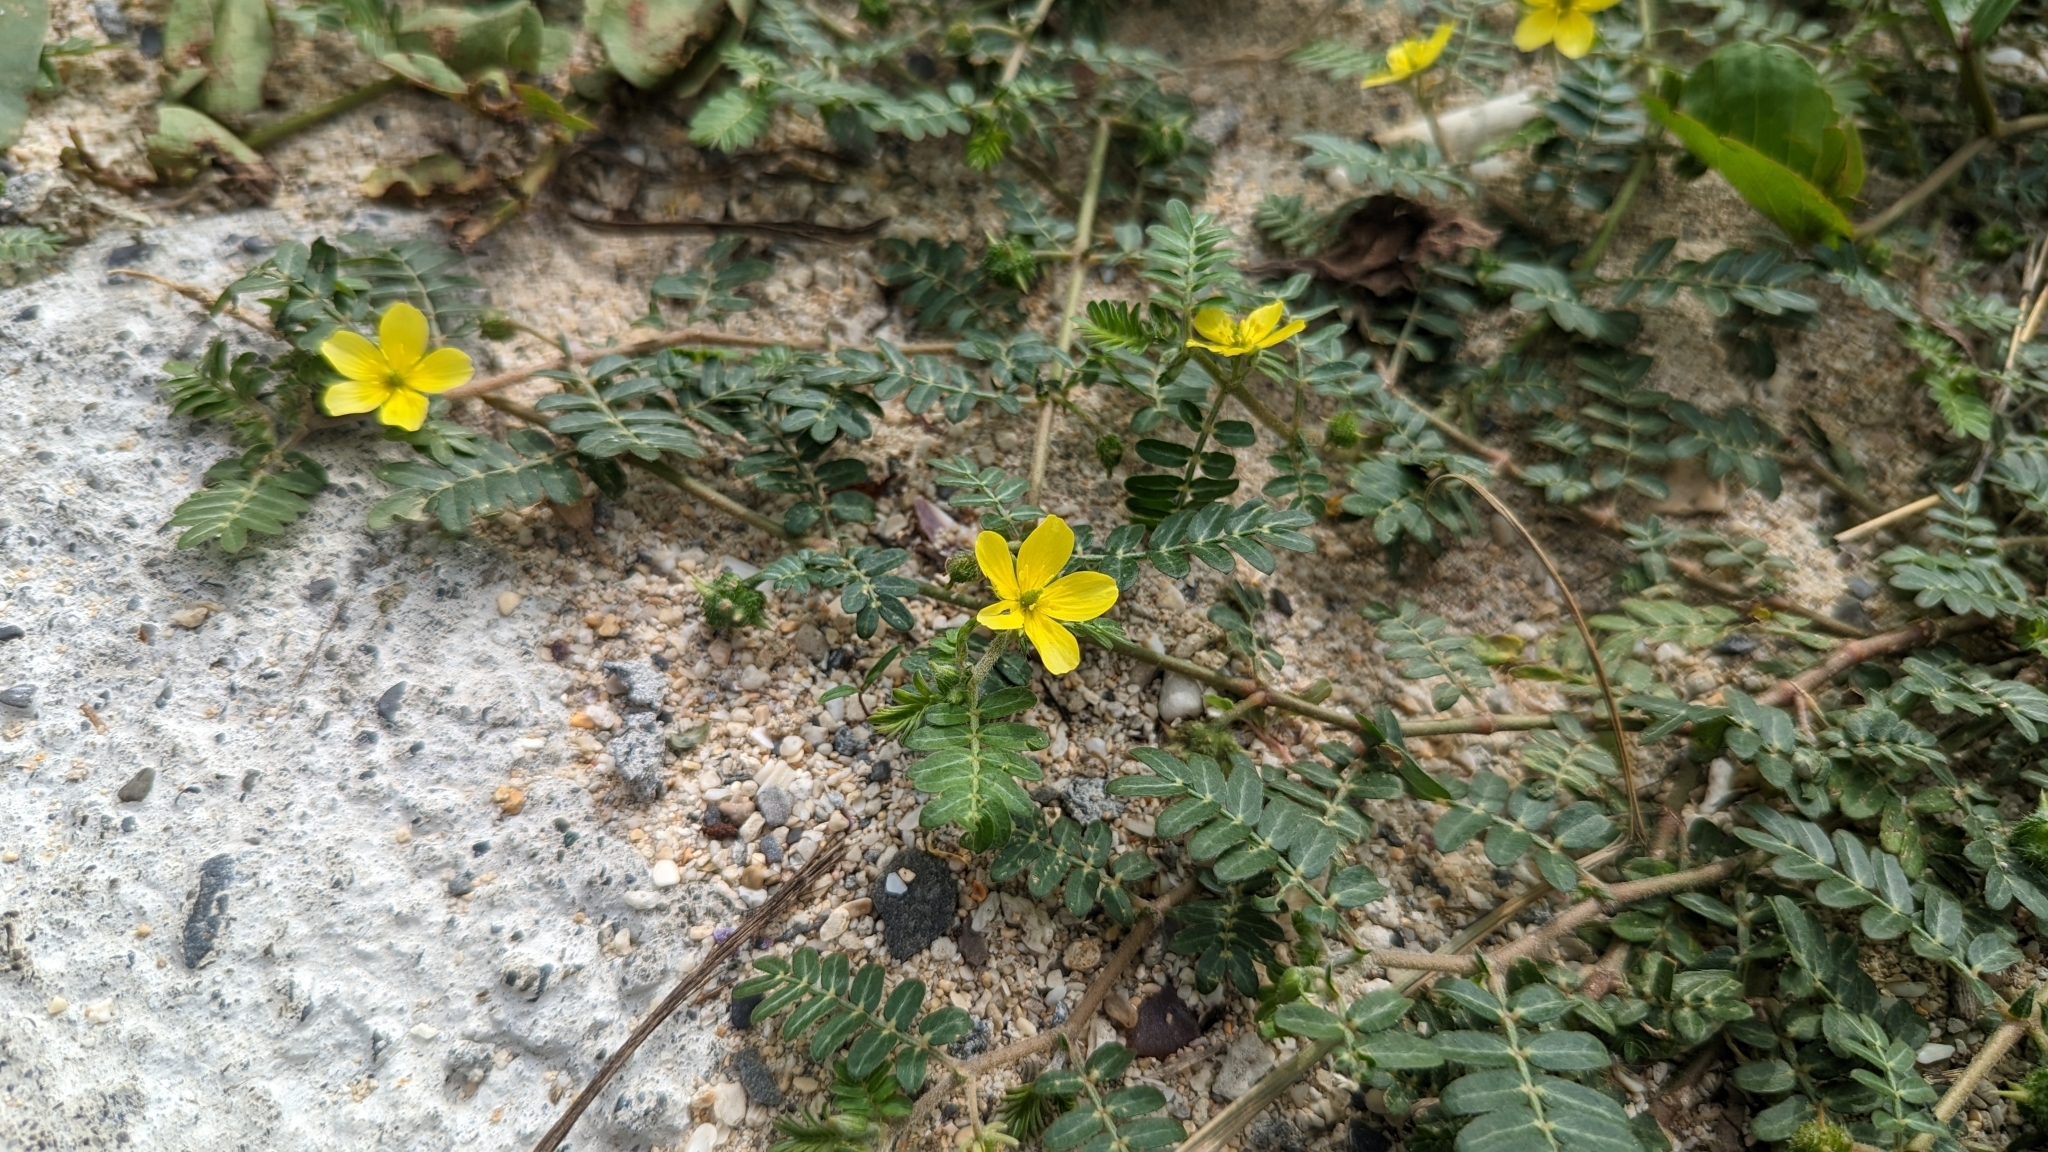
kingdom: Plantae
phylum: Tracheophyta
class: Magnoliopsida
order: Zygophyllales
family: Zygophyllaceae
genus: Tribulus
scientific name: Tribulus cistoides
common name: Jamaican feverplant
